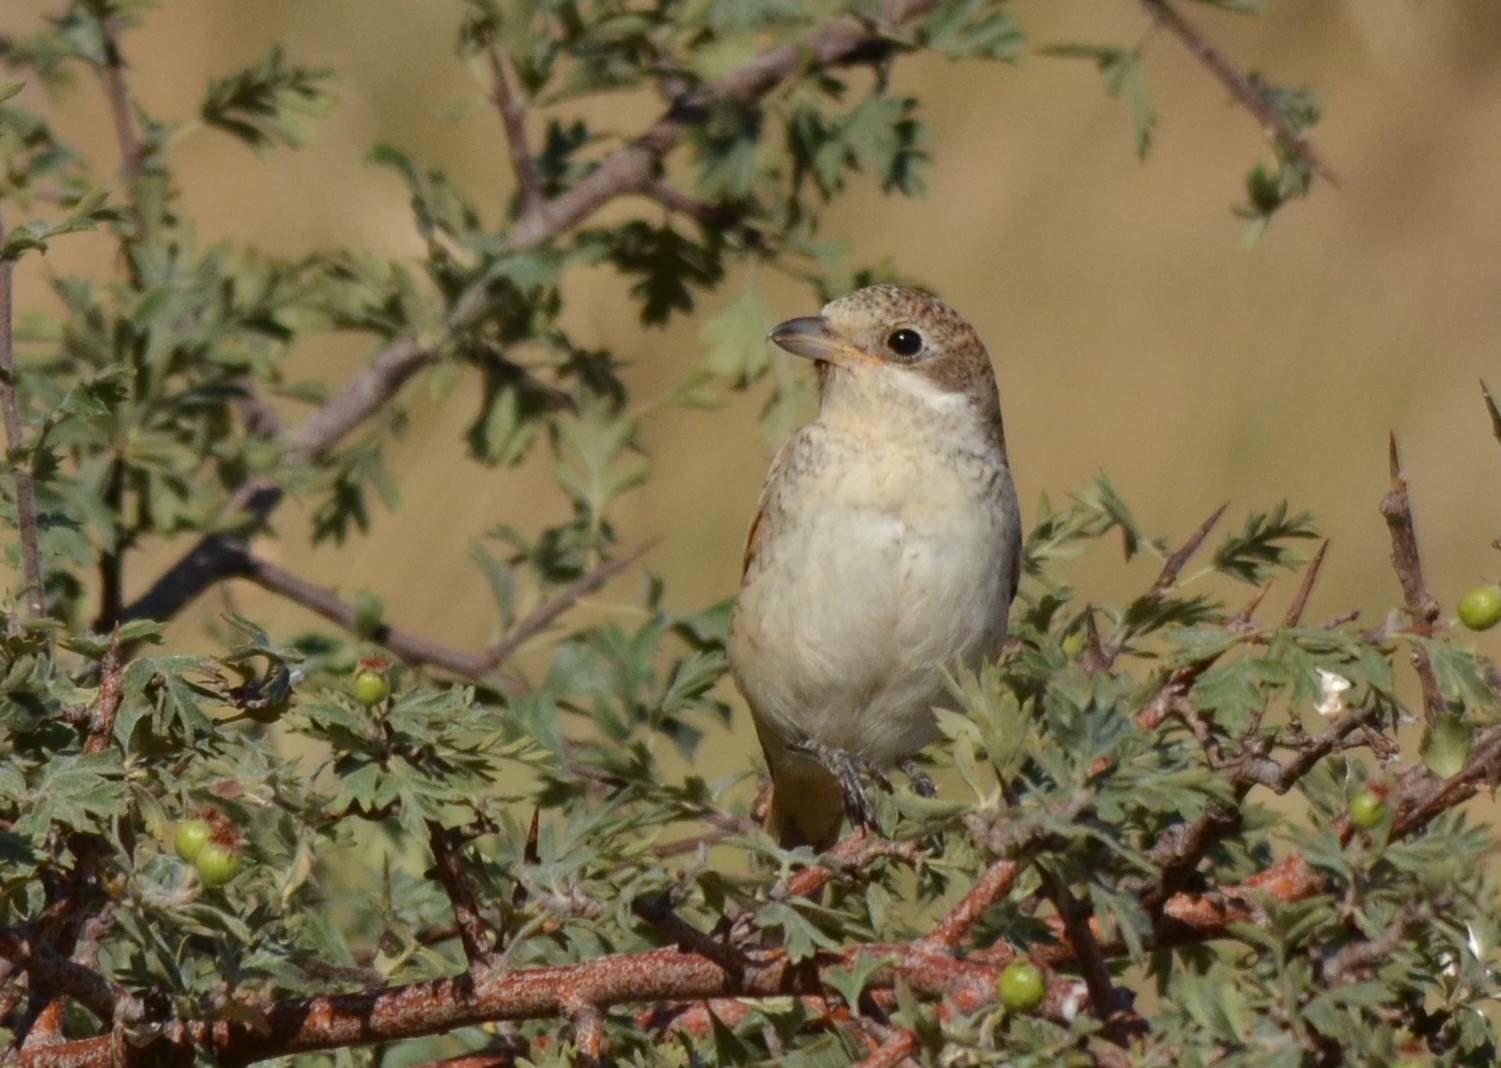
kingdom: Animalia
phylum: Chordata
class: Aves
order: Passeriformes
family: Laniidae
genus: Lanius
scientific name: Lanius senator
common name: Woodchat shrike
